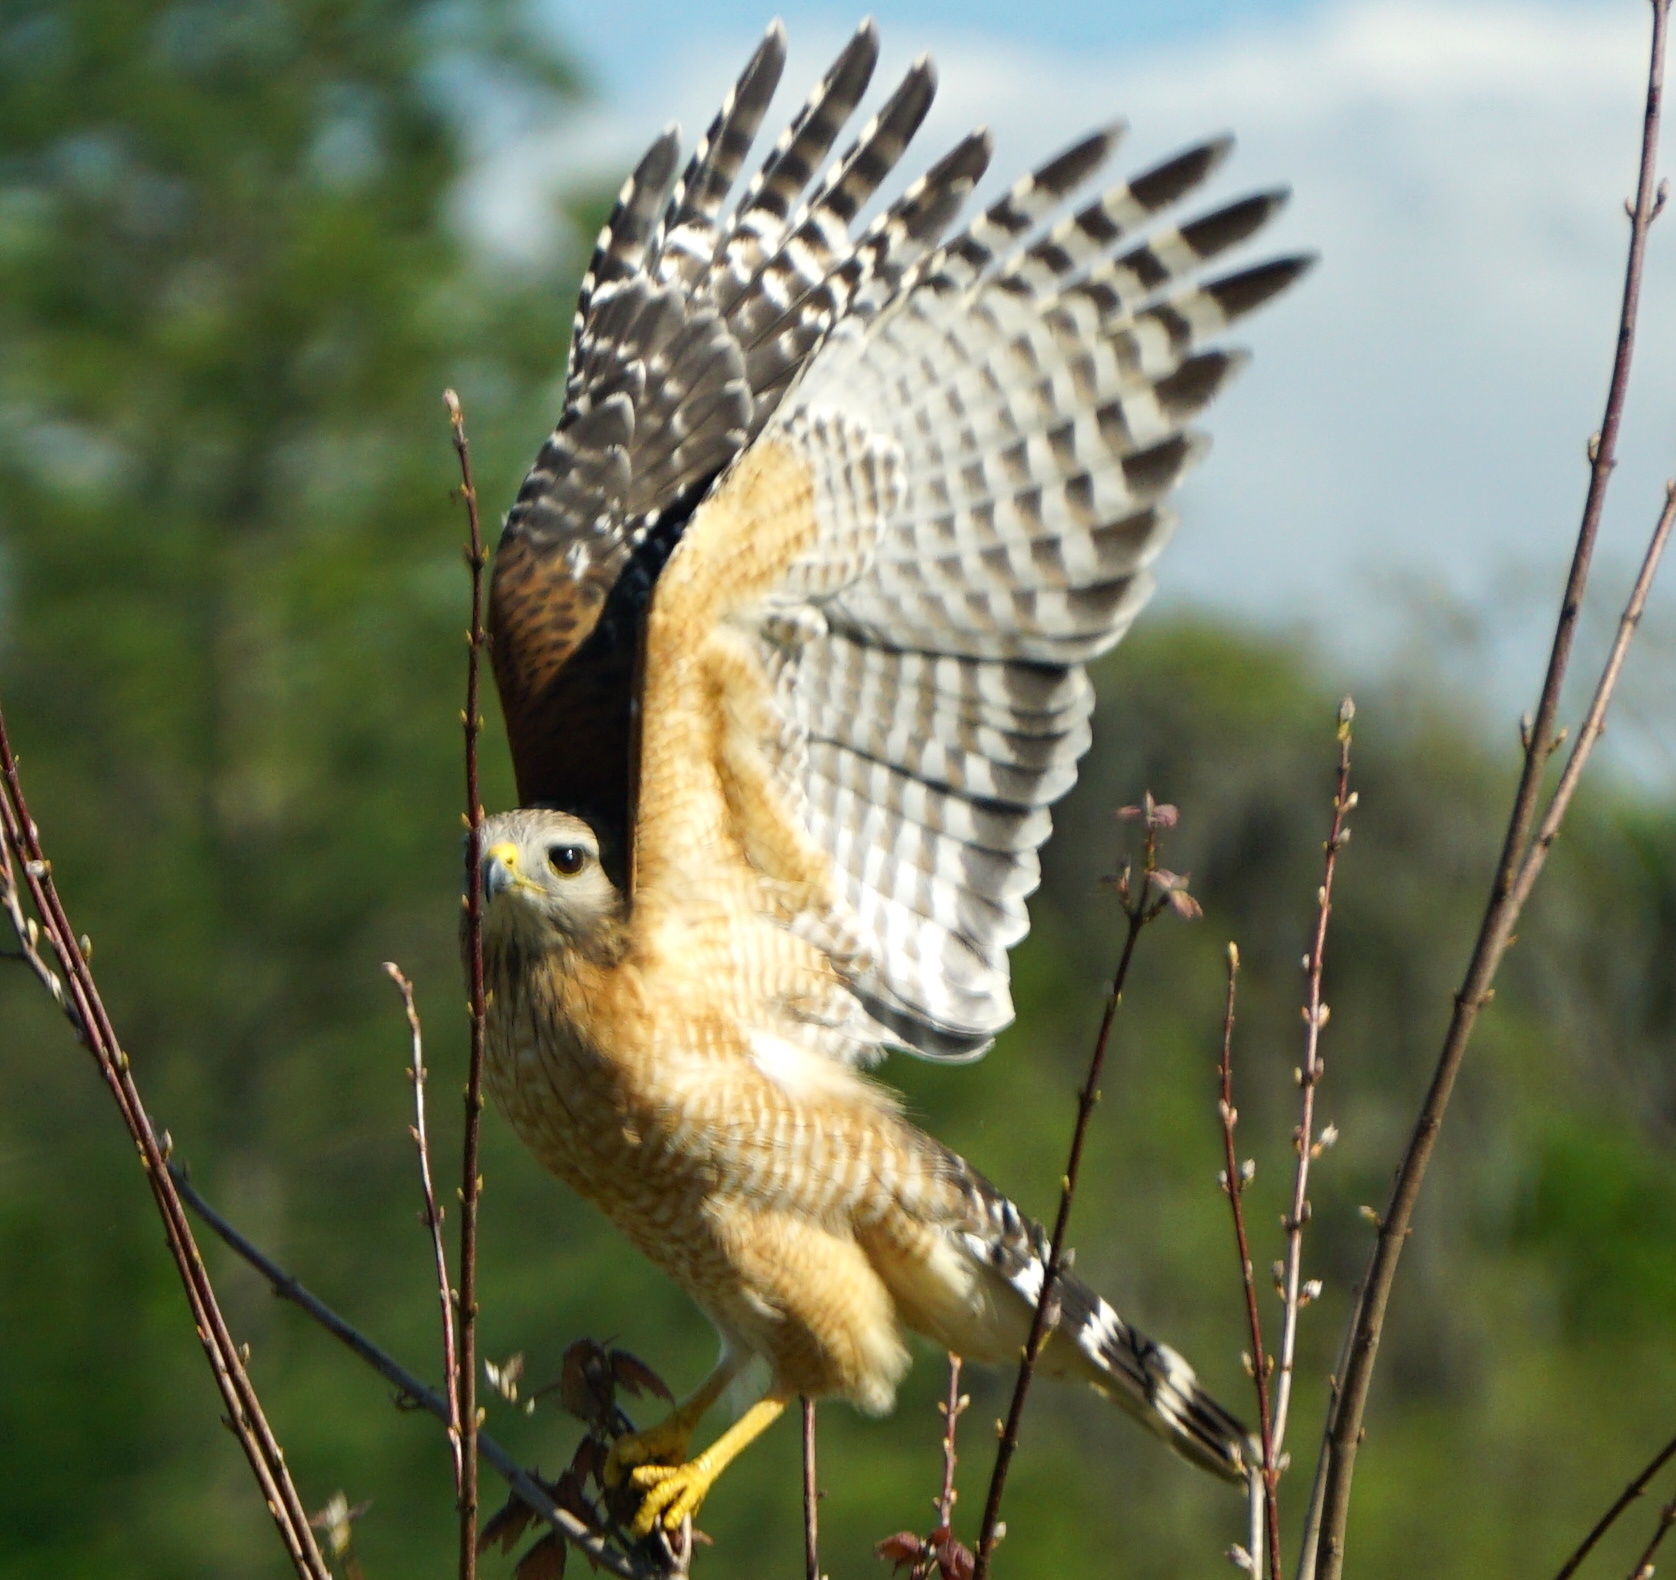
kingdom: Animalia
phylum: Chordata
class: Aves
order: Accipitriformes
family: Accipitridae
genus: Buteo
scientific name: Buteo lineatus
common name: Red-shouldered hawk
